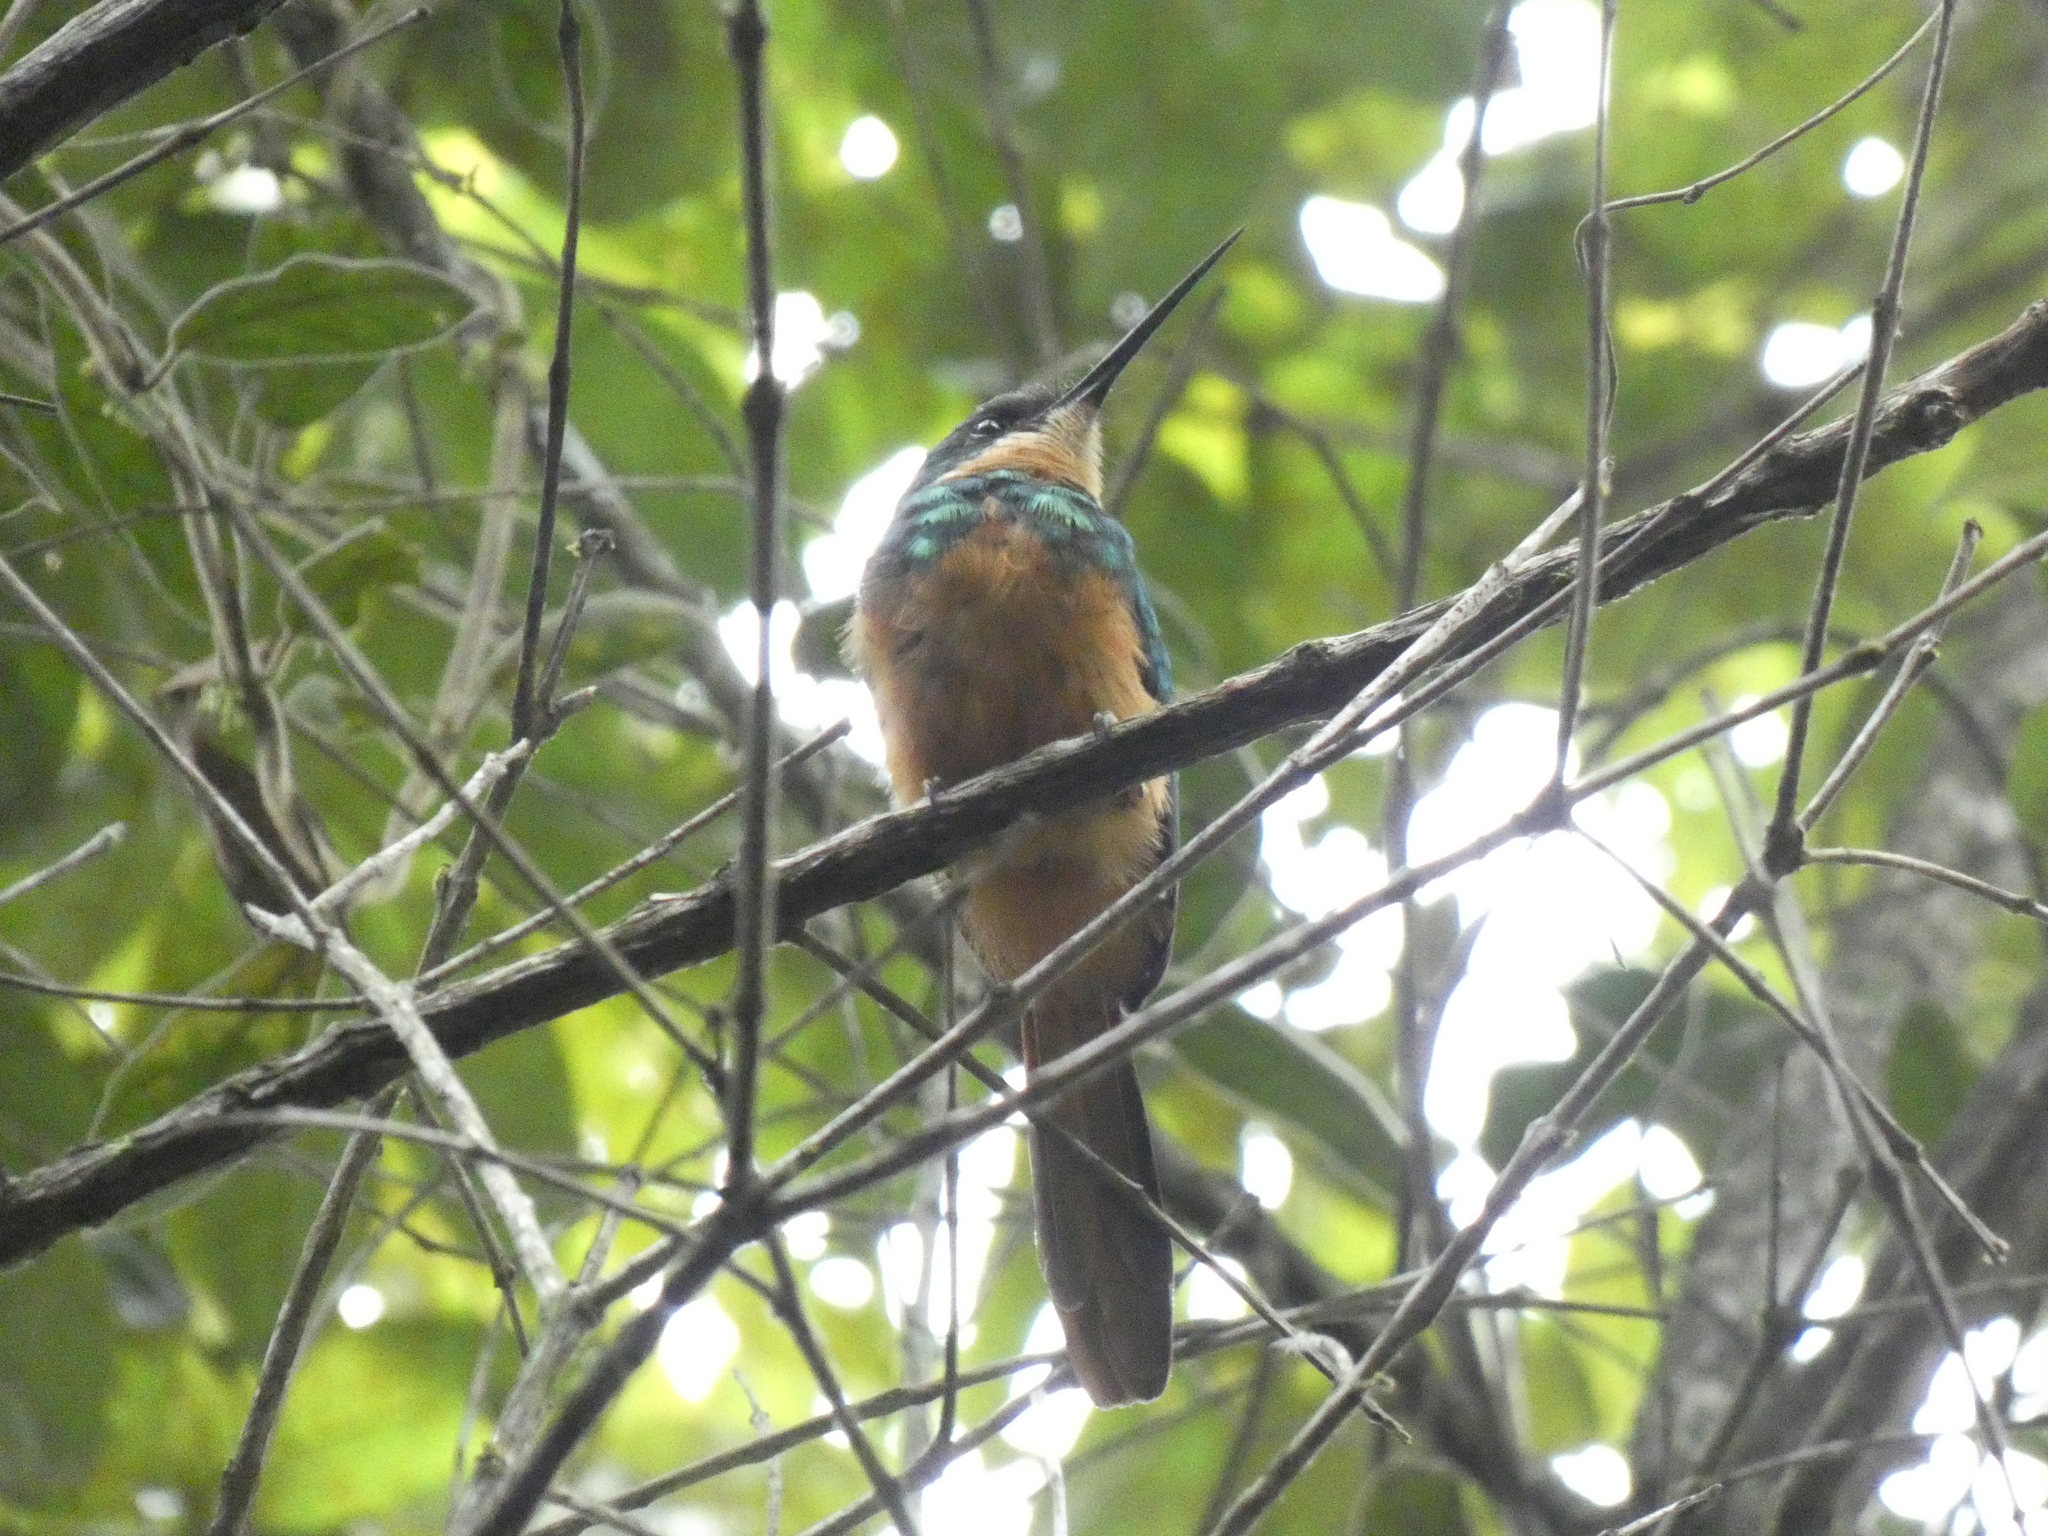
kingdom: Animalia
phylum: Chordata
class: Aves
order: Piciformes
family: Galbulidae
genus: Galbula
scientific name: Galbula ruficauda
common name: Rufous-tailed jacamar
